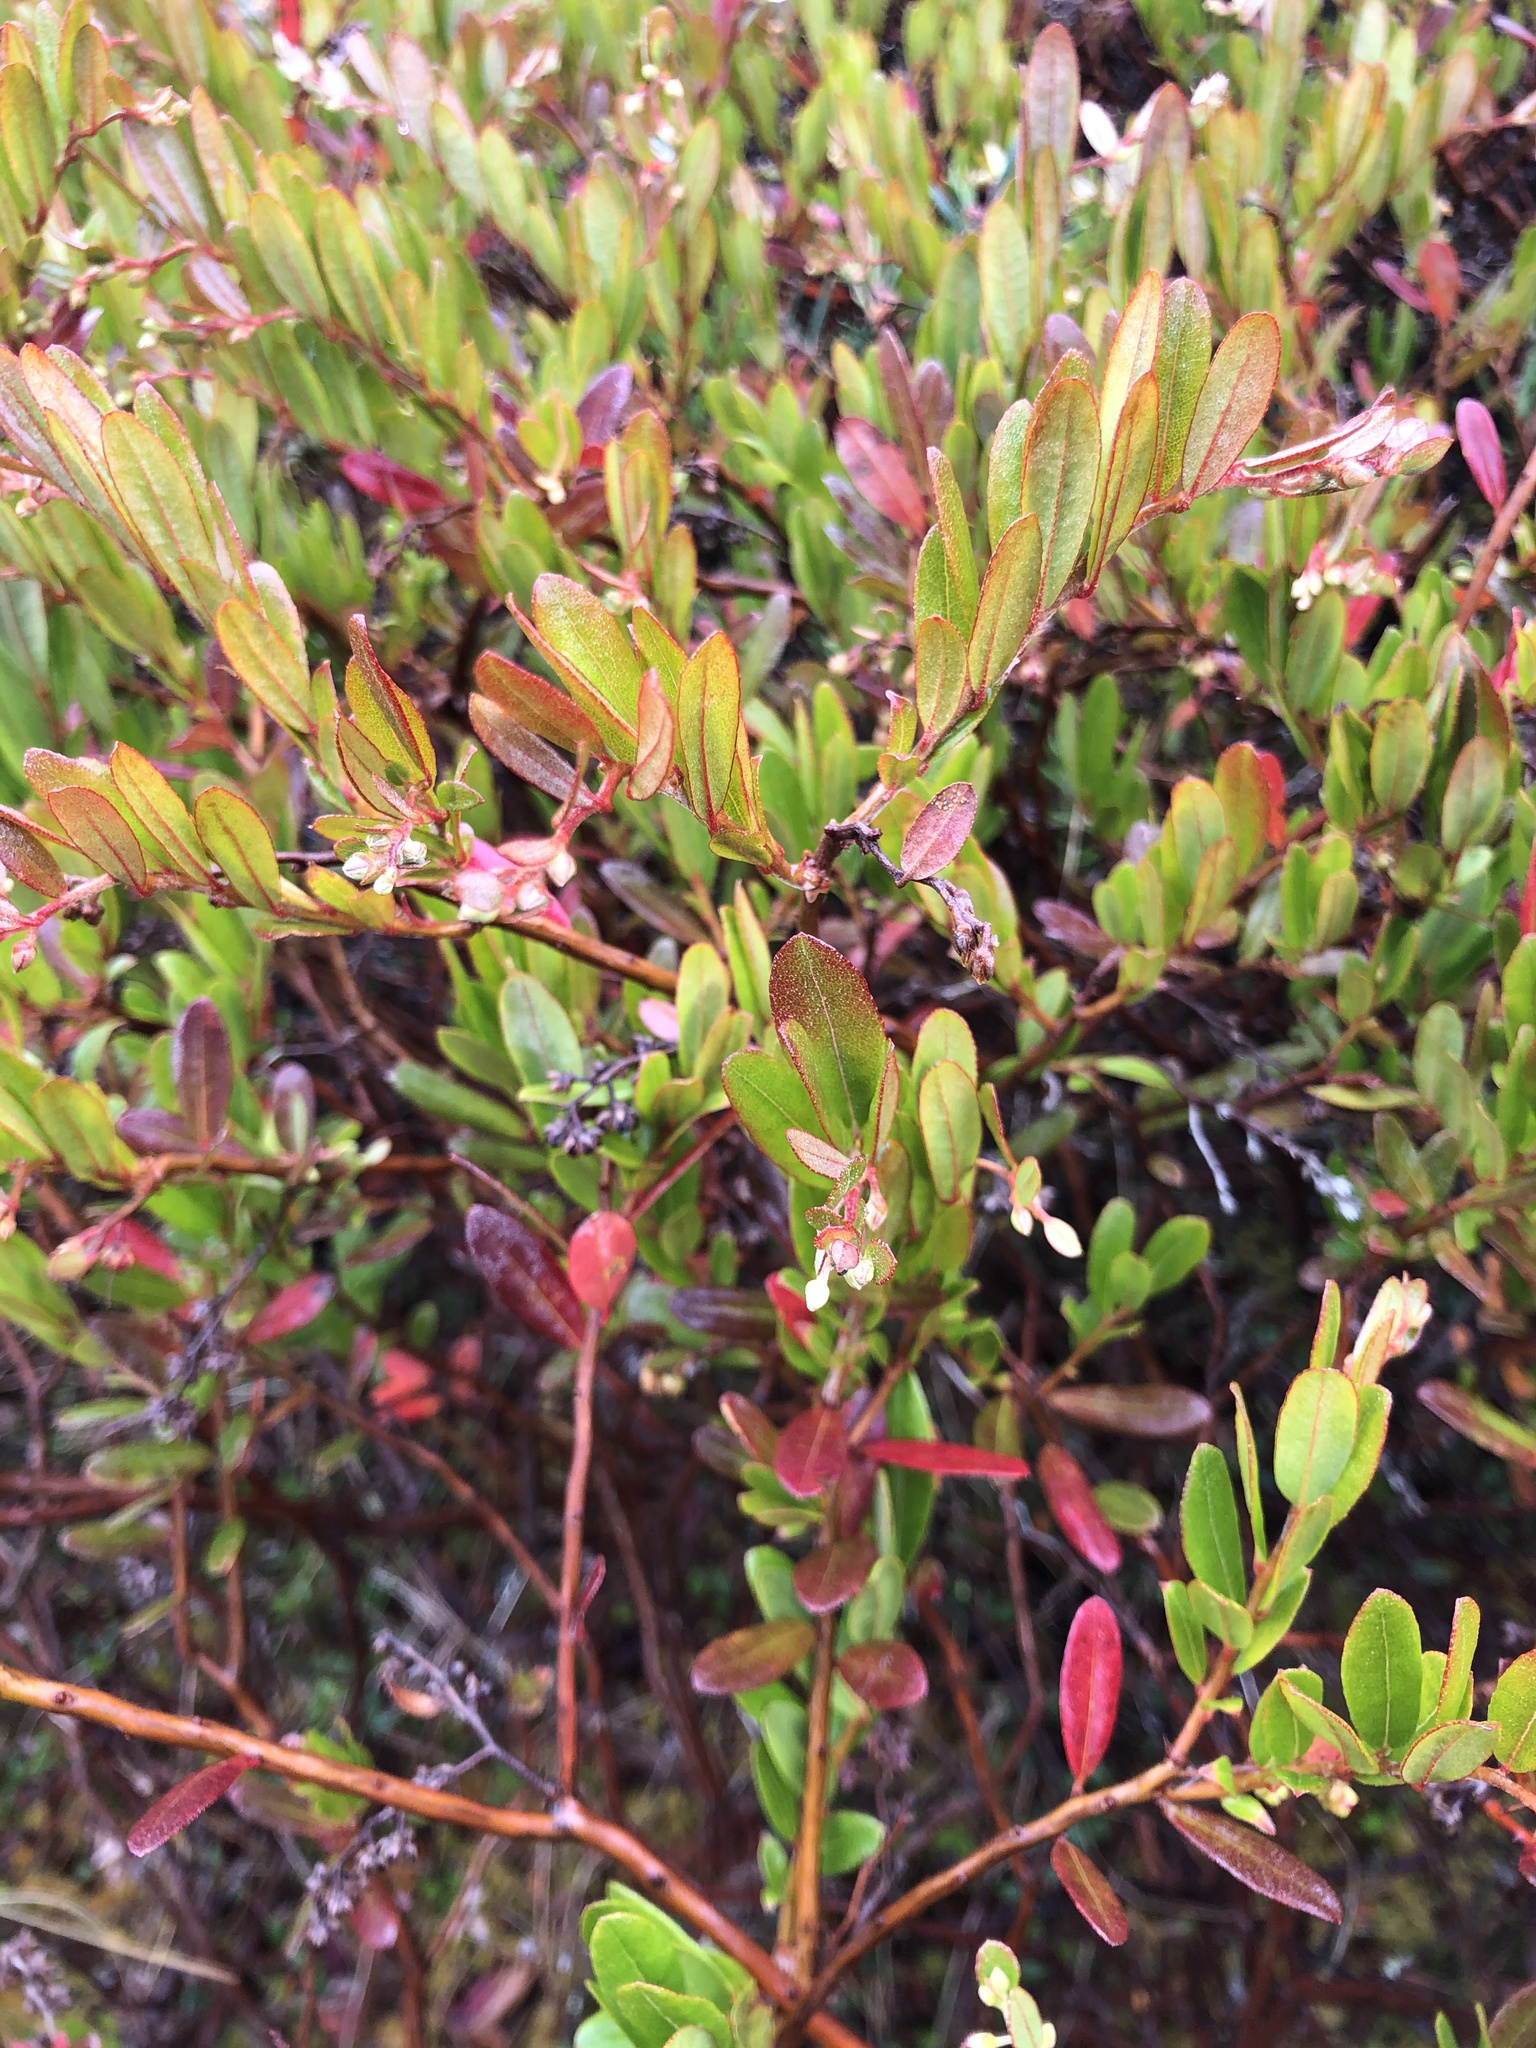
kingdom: Plantae
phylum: Tracheophyta
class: Magnoliopsida
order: Ericales
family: Ericaceae
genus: Chamaedaphne
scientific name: Chamaedaphne calyculata
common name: Leatherleaf
